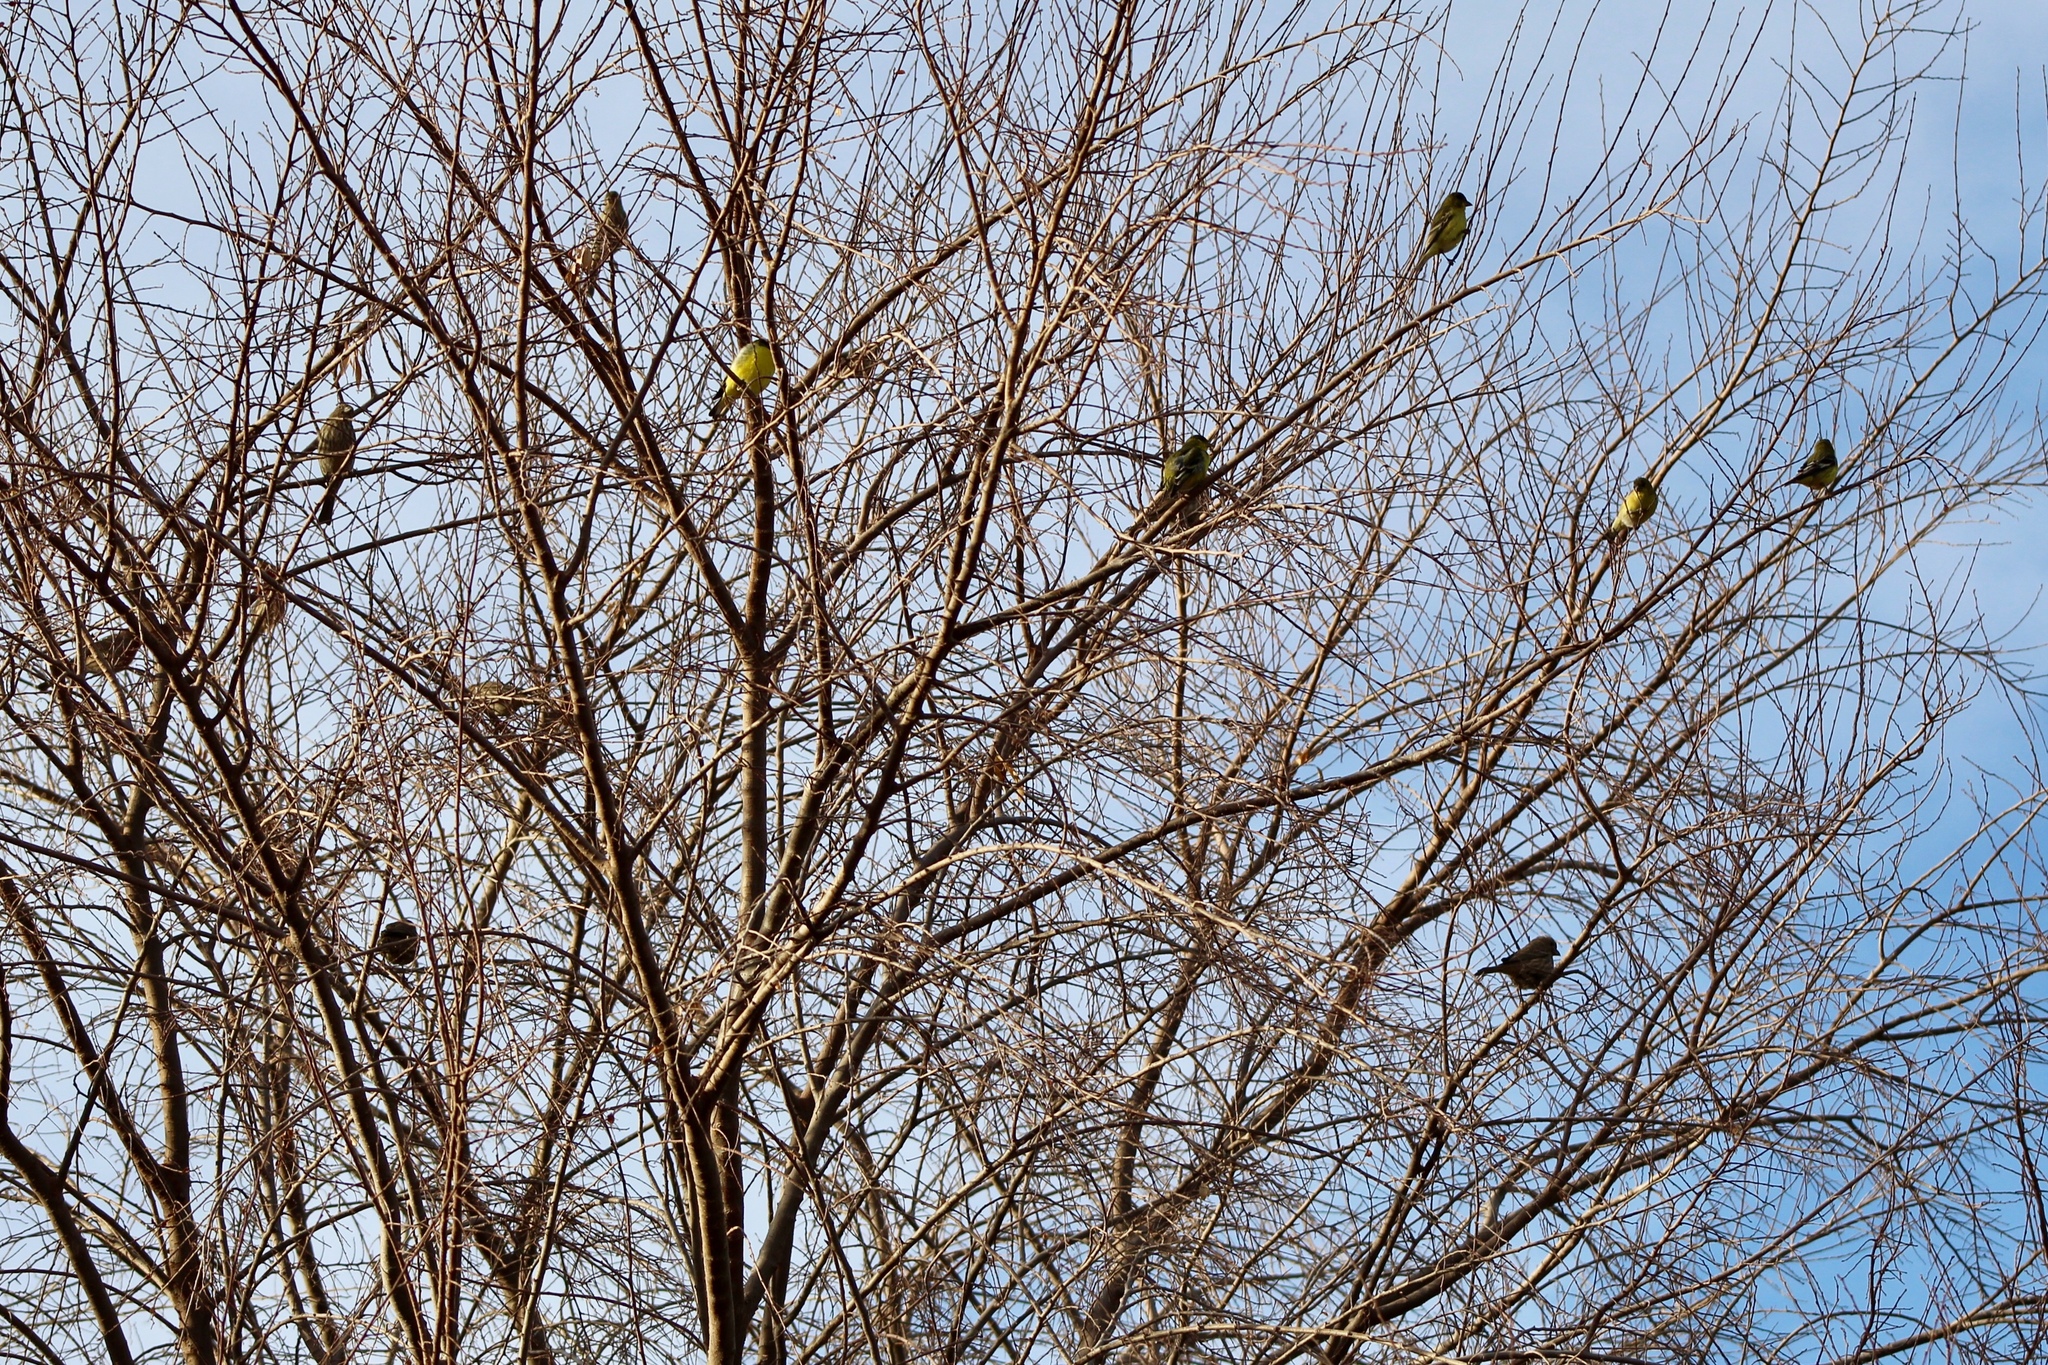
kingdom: Animalia
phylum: Chordata
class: Aves
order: Passeriformes
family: Fringillidae
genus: Spinus
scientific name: Spinus psaltria
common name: Lesser goldfinch
